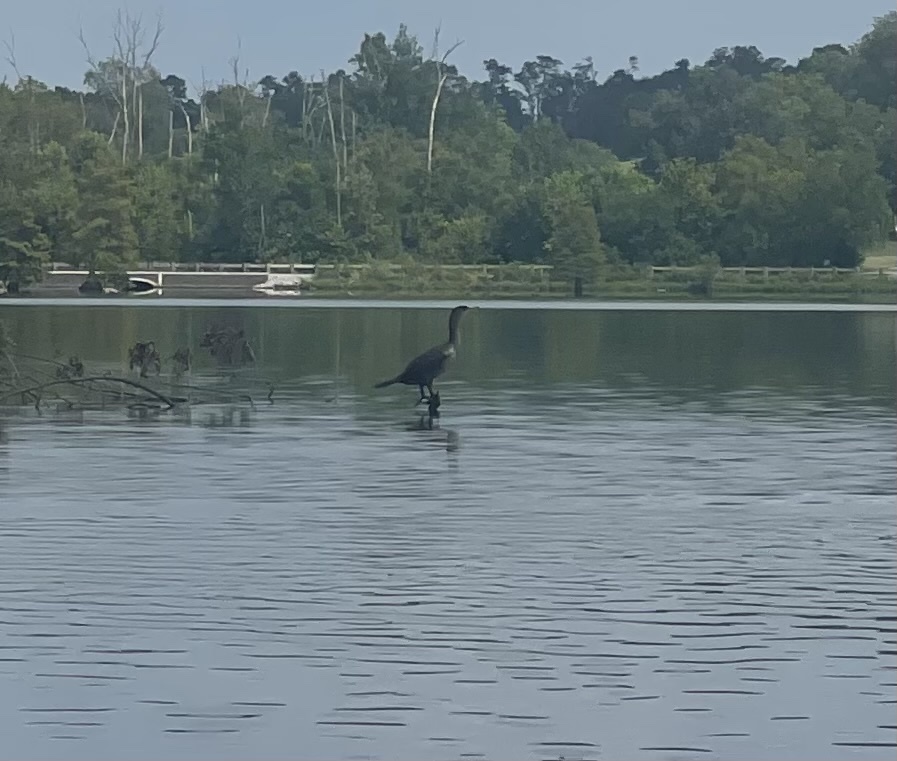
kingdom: Animalia
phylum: Chordata
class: Aves
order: Suliformes
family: Phalacrocoracidae
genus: Phalacrocorax
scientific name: Phalacrocorax auritus
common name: Double-crested cormorant
